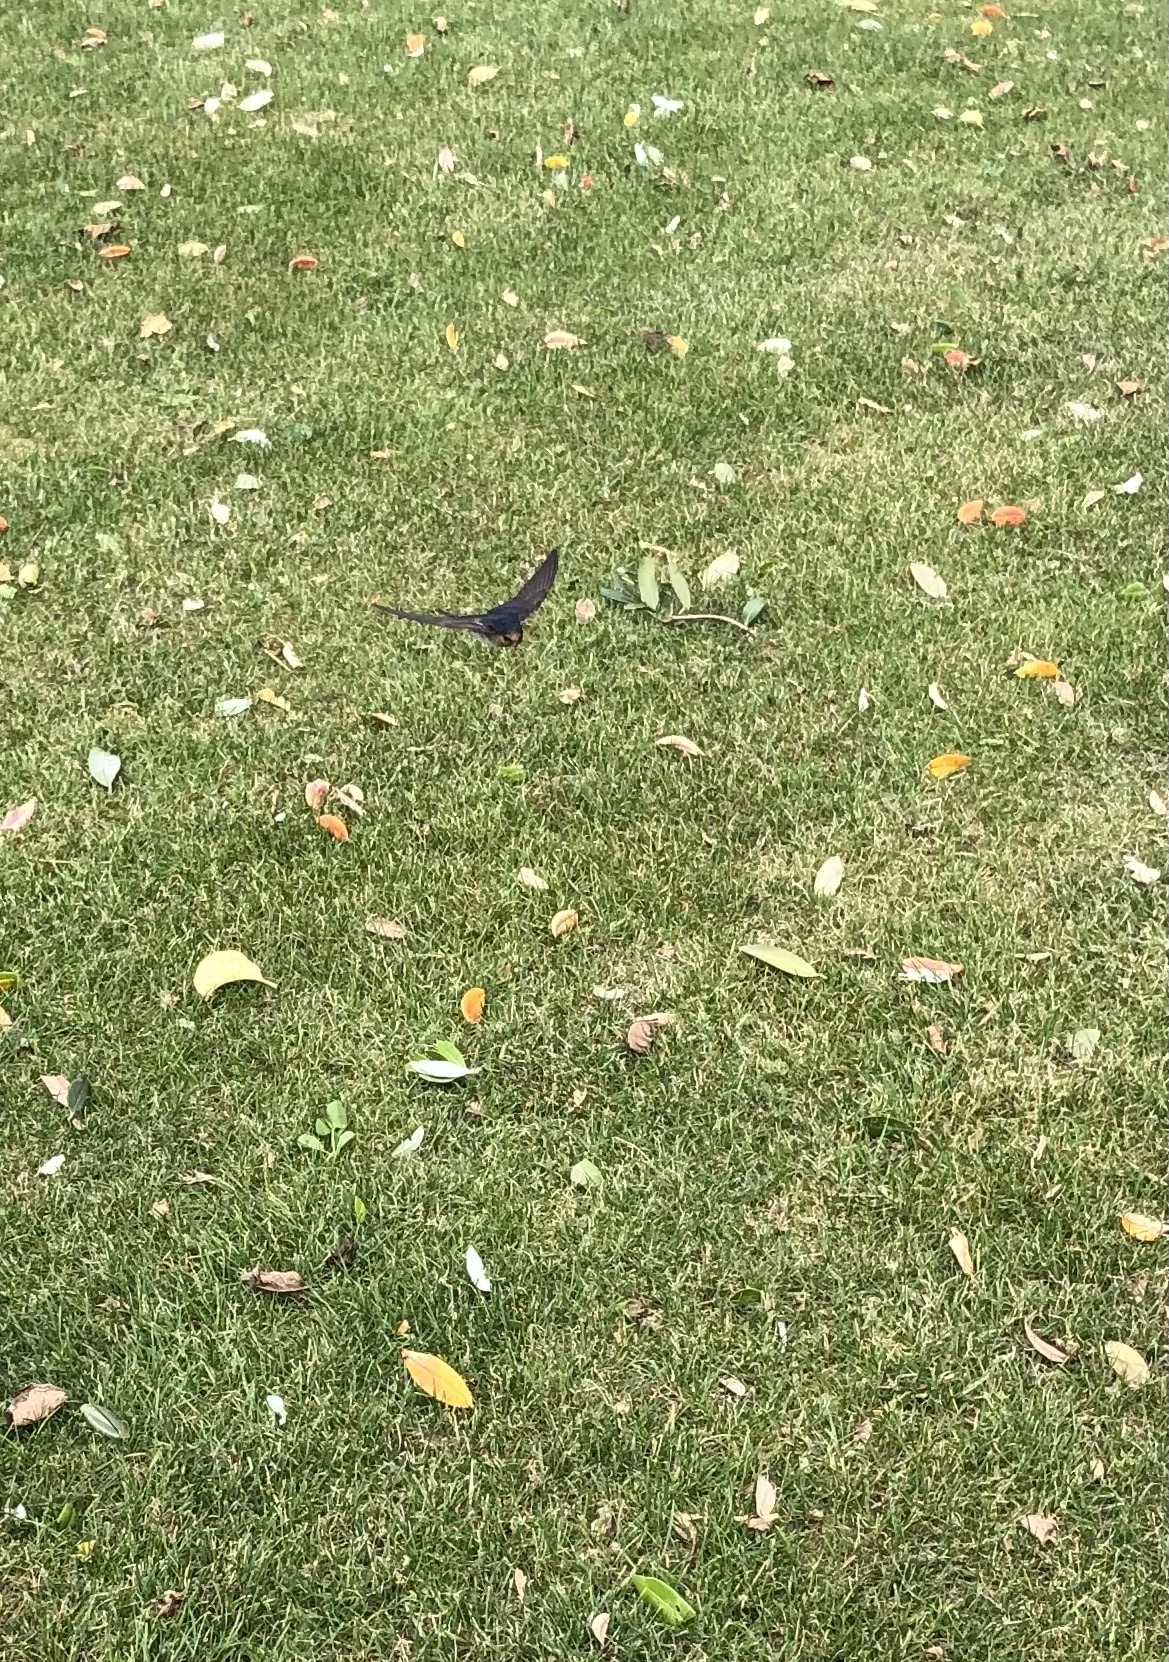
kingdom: Animalia
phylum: Chordata
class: Aves
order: Passeriformes
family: Hirundinidae
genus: Hirundo
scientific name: Hirundo neoxena
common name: Welcome swallow
